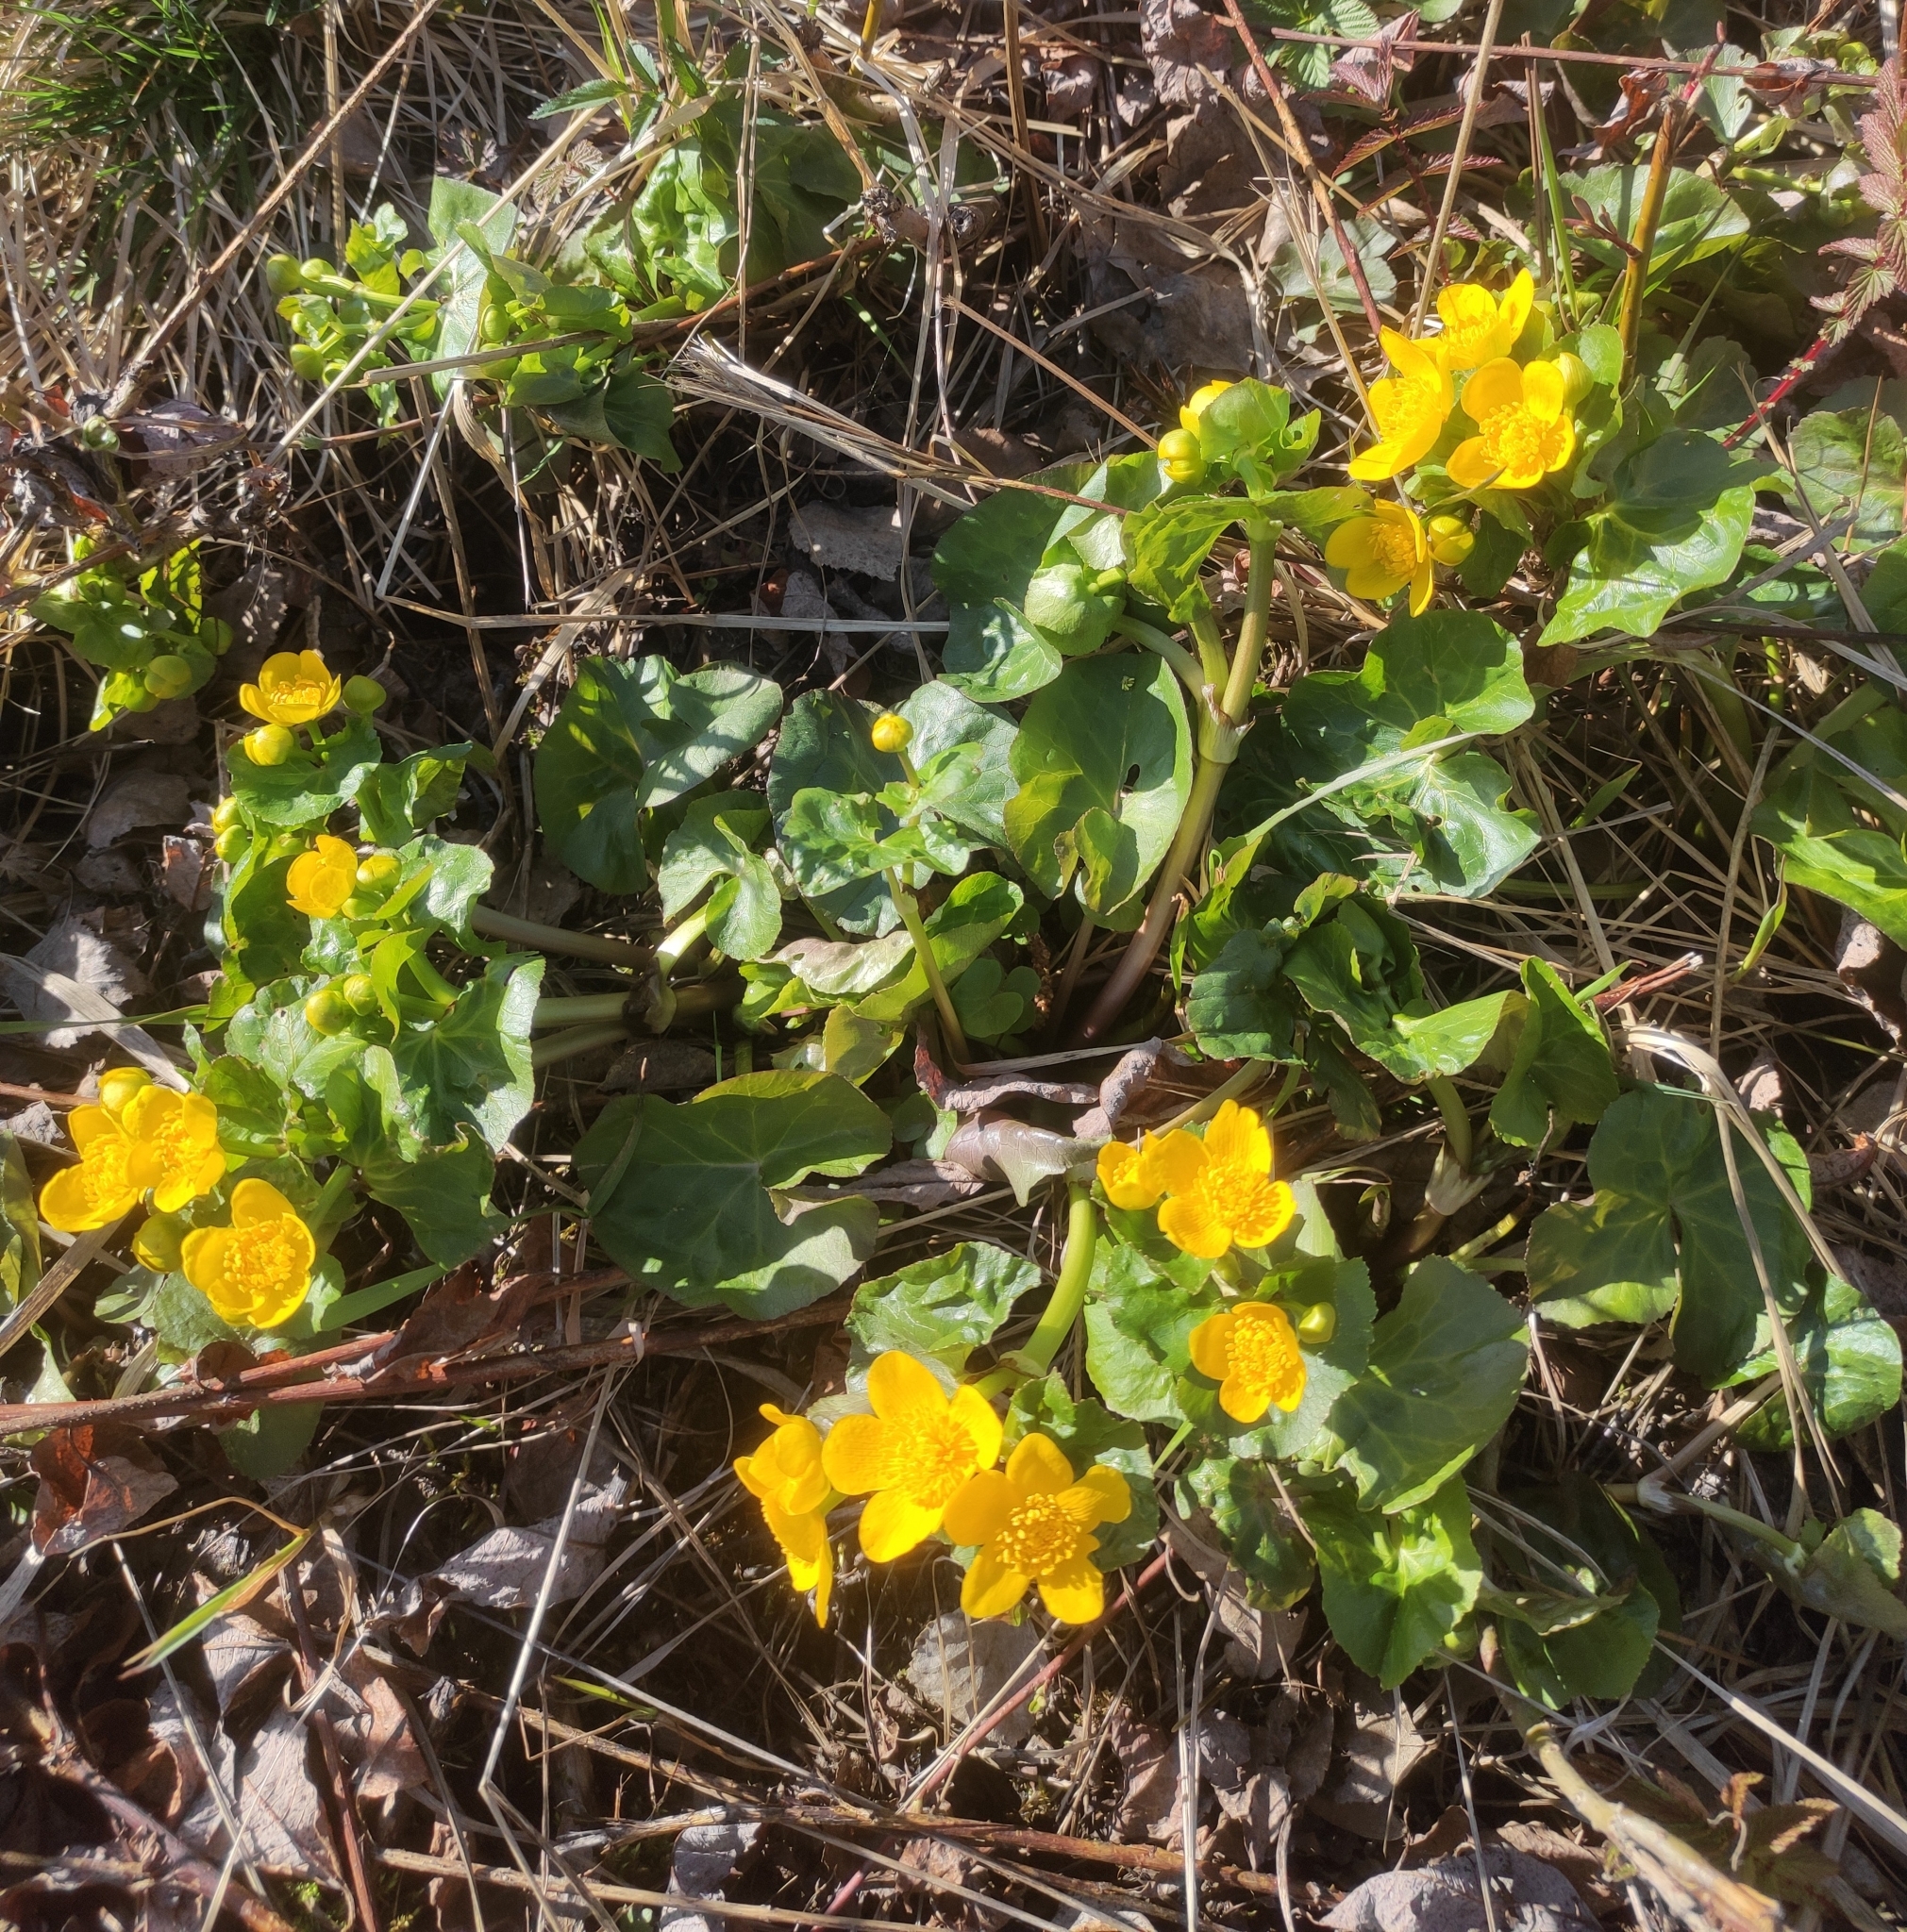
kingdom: Plantae
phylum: Tracheophyta
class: Magnoliopsida
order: Ranunculales
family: Ranunculaceae
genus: Caltha
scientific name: Caltha palustris
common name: Marsh marigold
